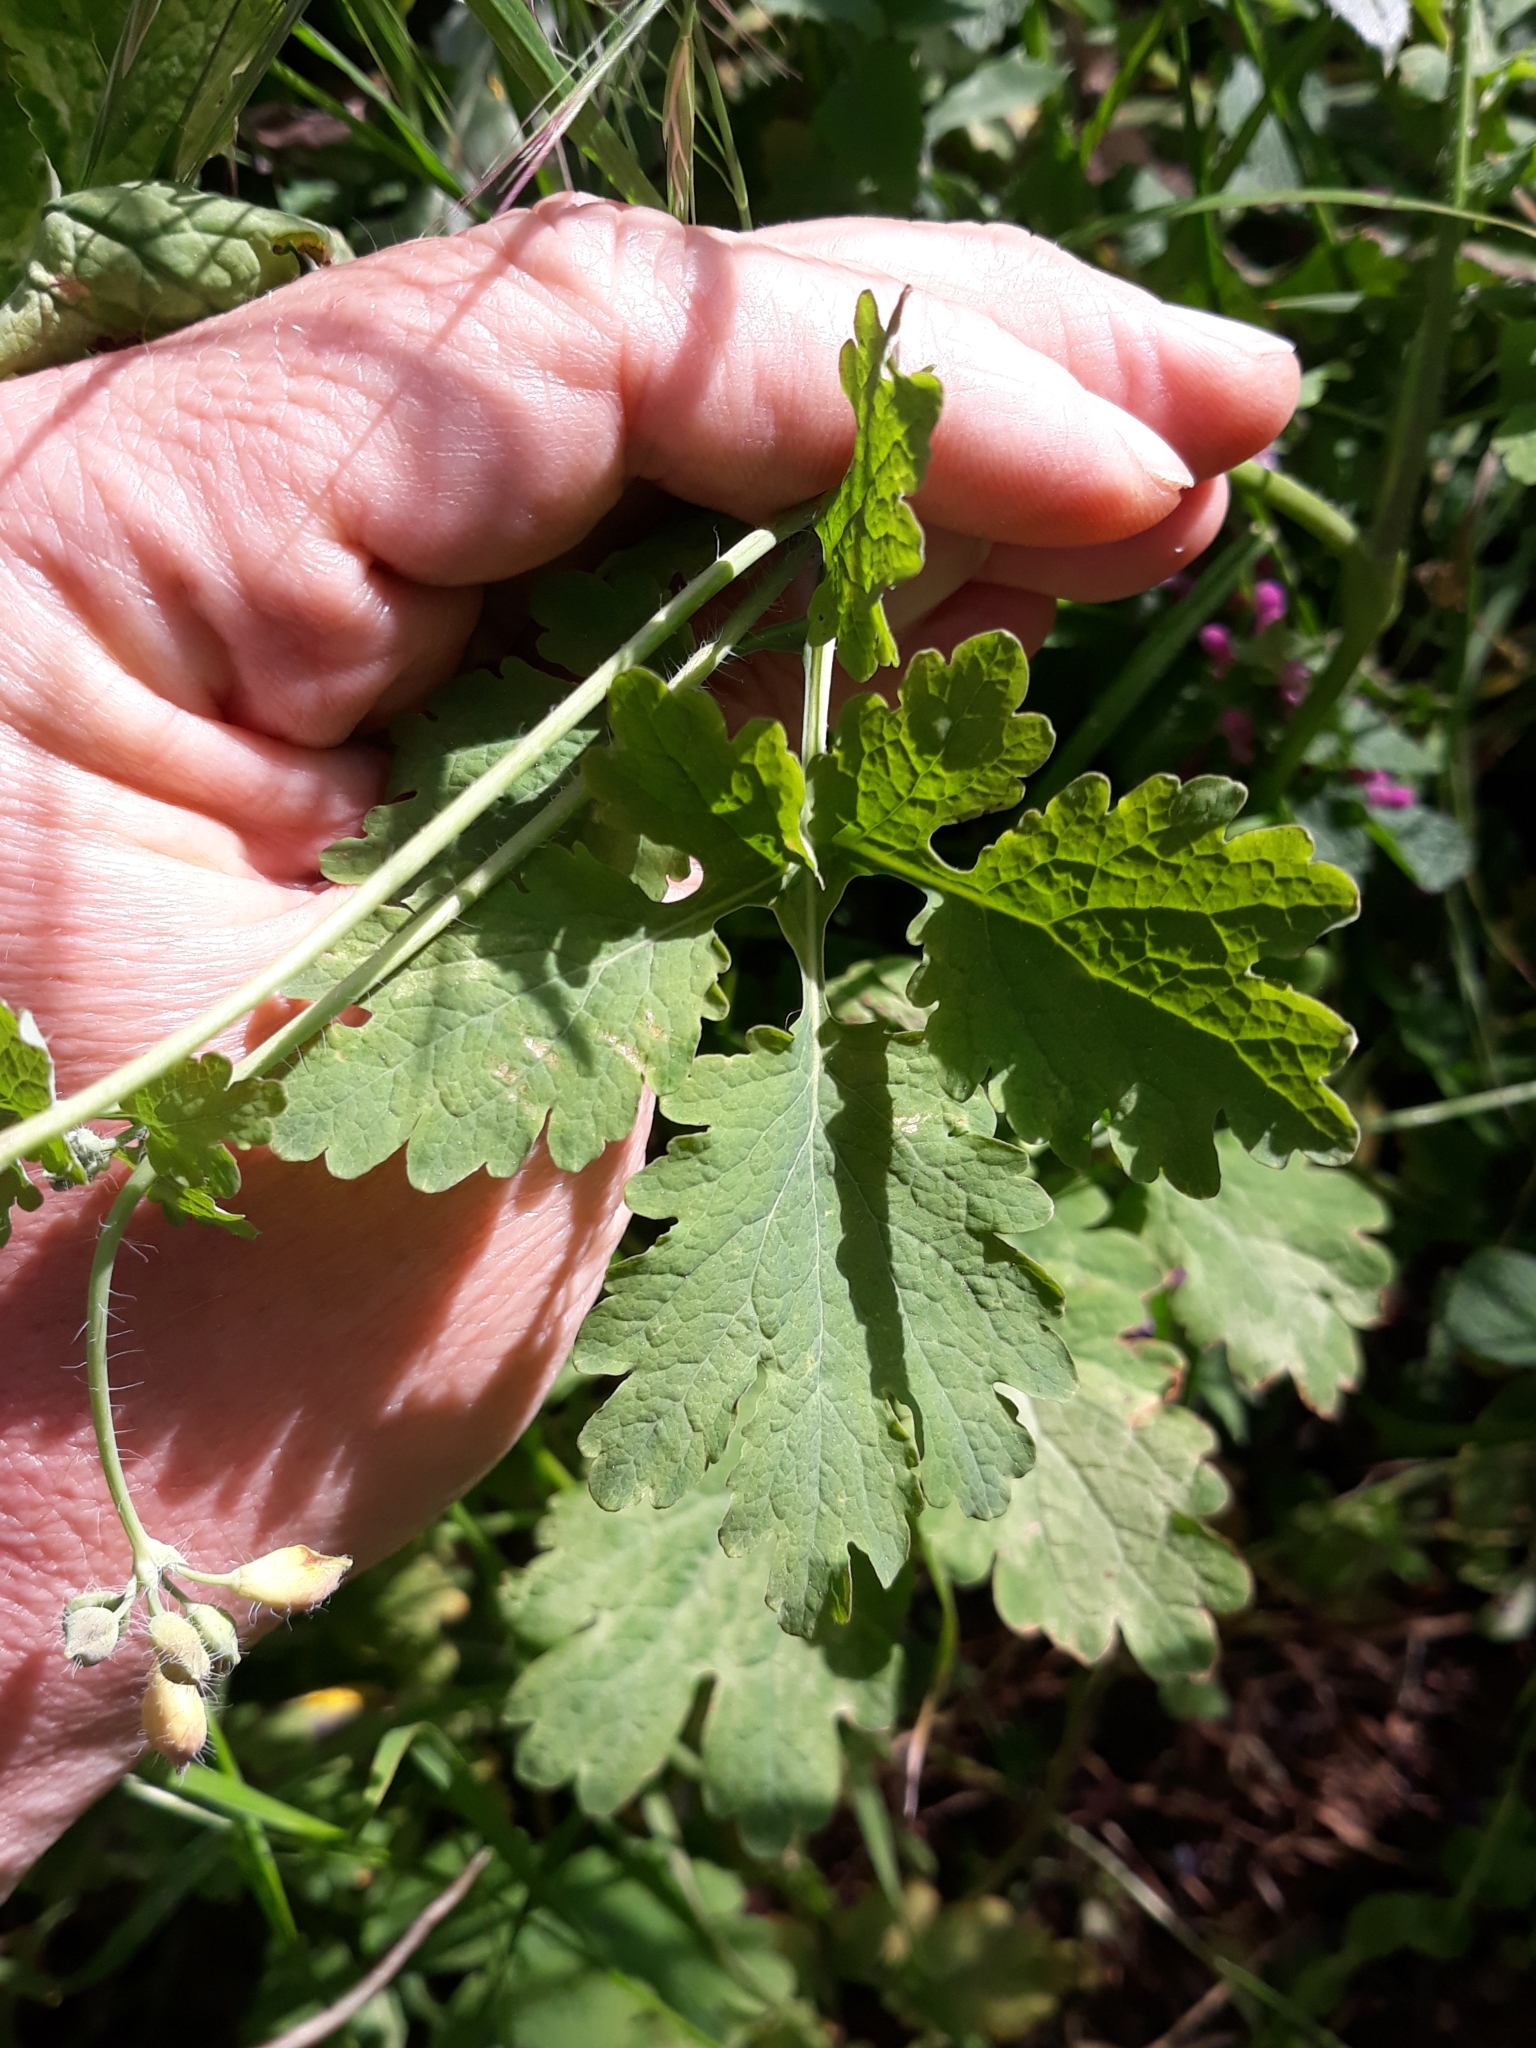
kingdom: Plantae
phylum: Tracheophyta
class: Magnoliopsida
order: Ranunculales
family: Papaveraceae
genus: Chelidonium
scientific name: Chelidonium majus
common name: Greater celandine
